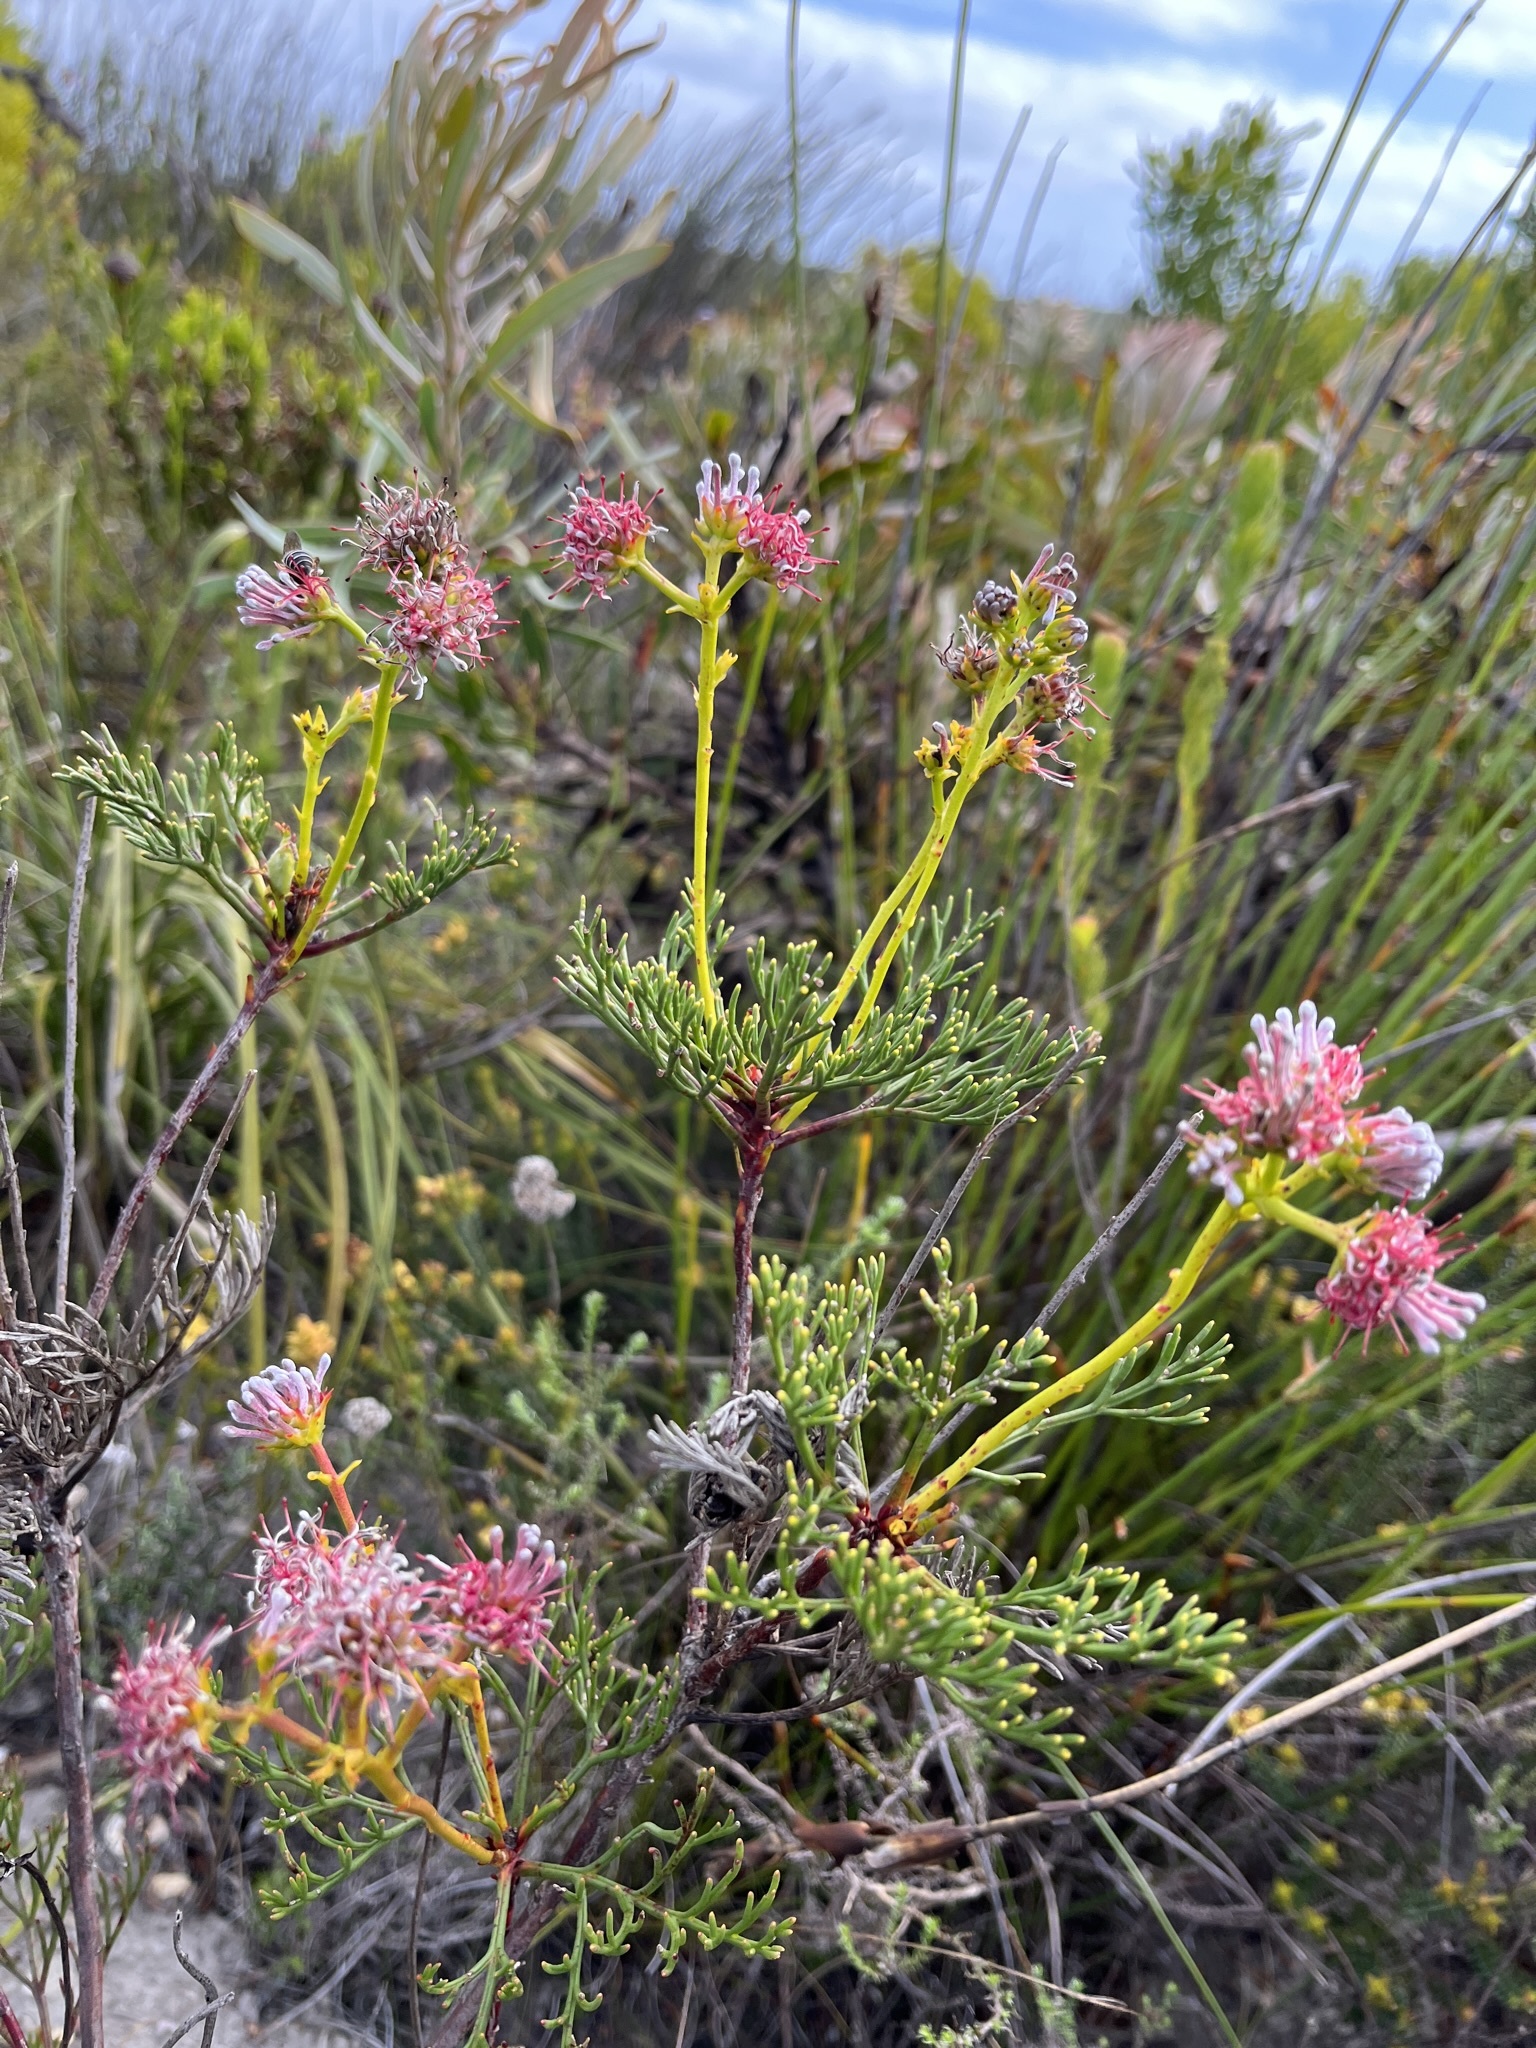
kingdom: Plantae
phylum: Tracheophyta
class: Magnoliopsida
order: Proteales
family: Proteaceae
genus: Serruria
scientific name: Serruria elongata
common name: Long-stalk spiderhead
